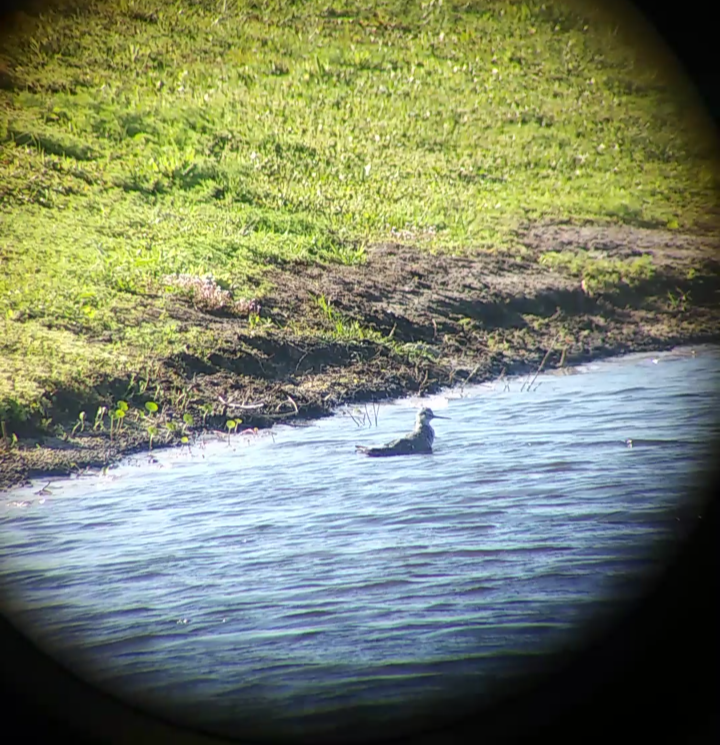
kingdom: Animalia
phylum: Chordata
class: Aves
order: Charadriiformes
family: Scolopacidae
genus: Tringa
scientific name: Tringa melanoleuca
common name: Greater yellowlegs
